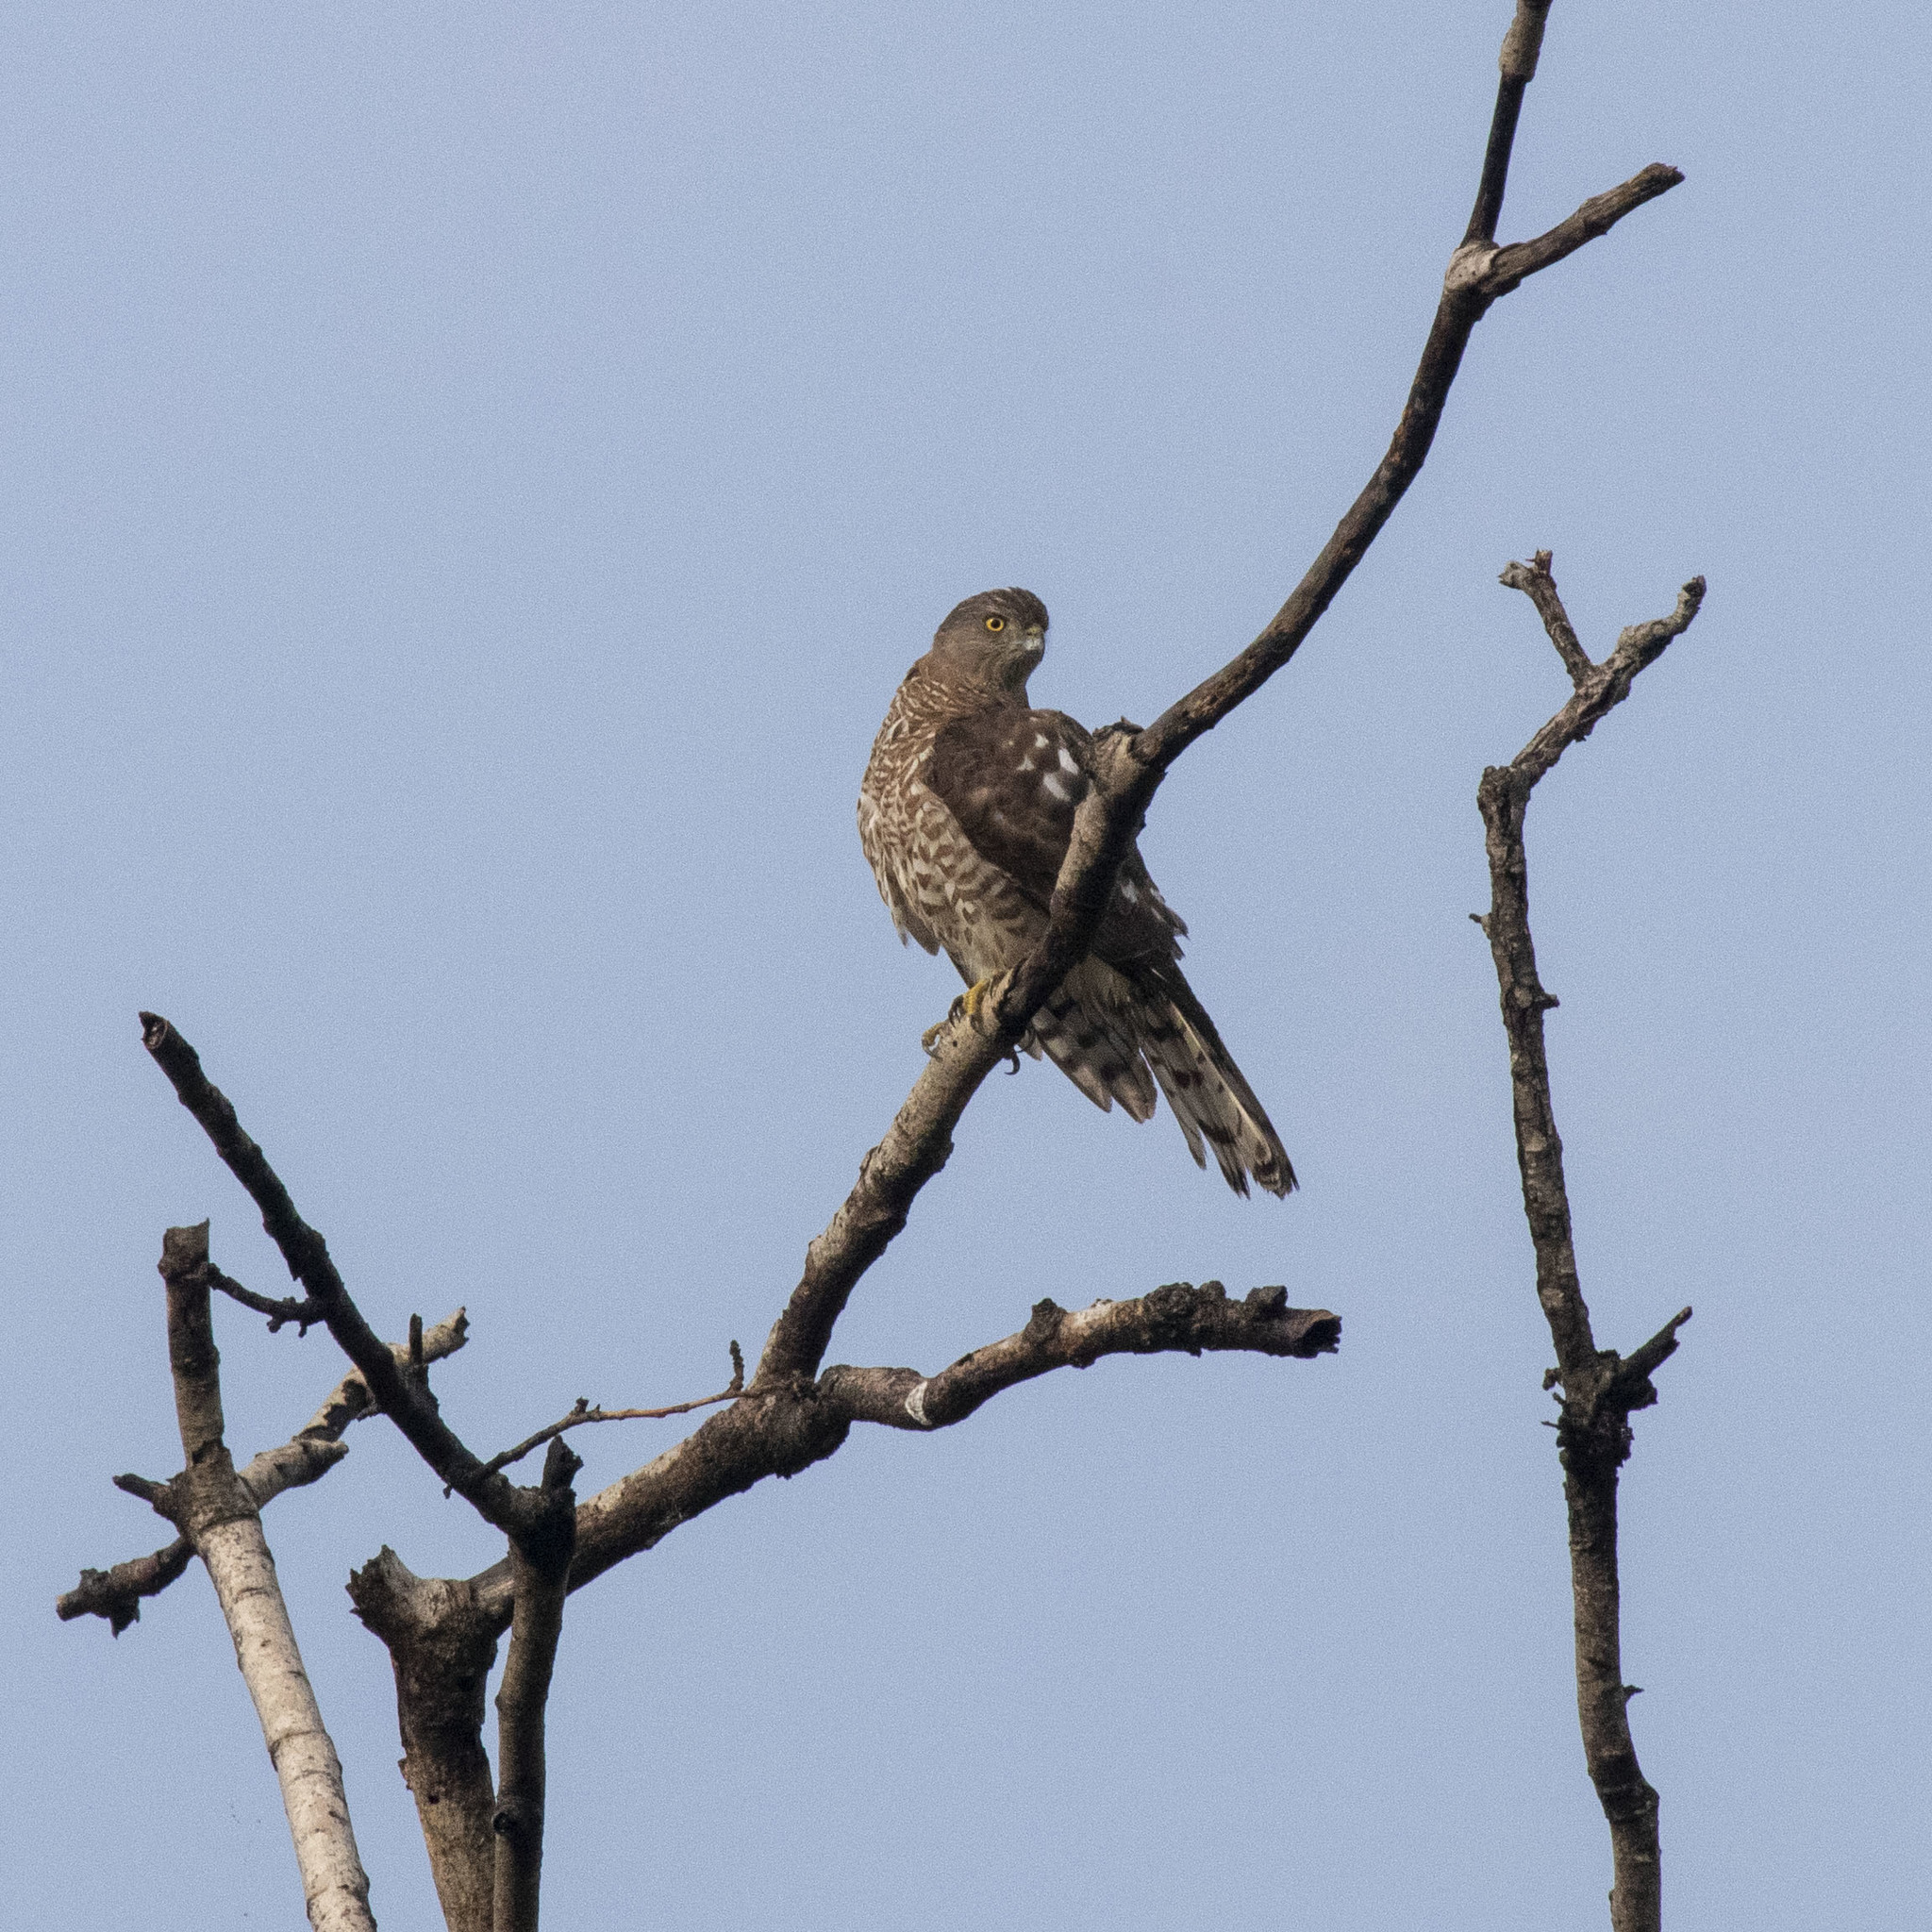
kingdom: Animalia
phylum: Chordata
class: Aves
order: Accipitriformes
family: Accipitridae
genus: Accipiter
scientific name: Accipiter badius
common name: Shikra
